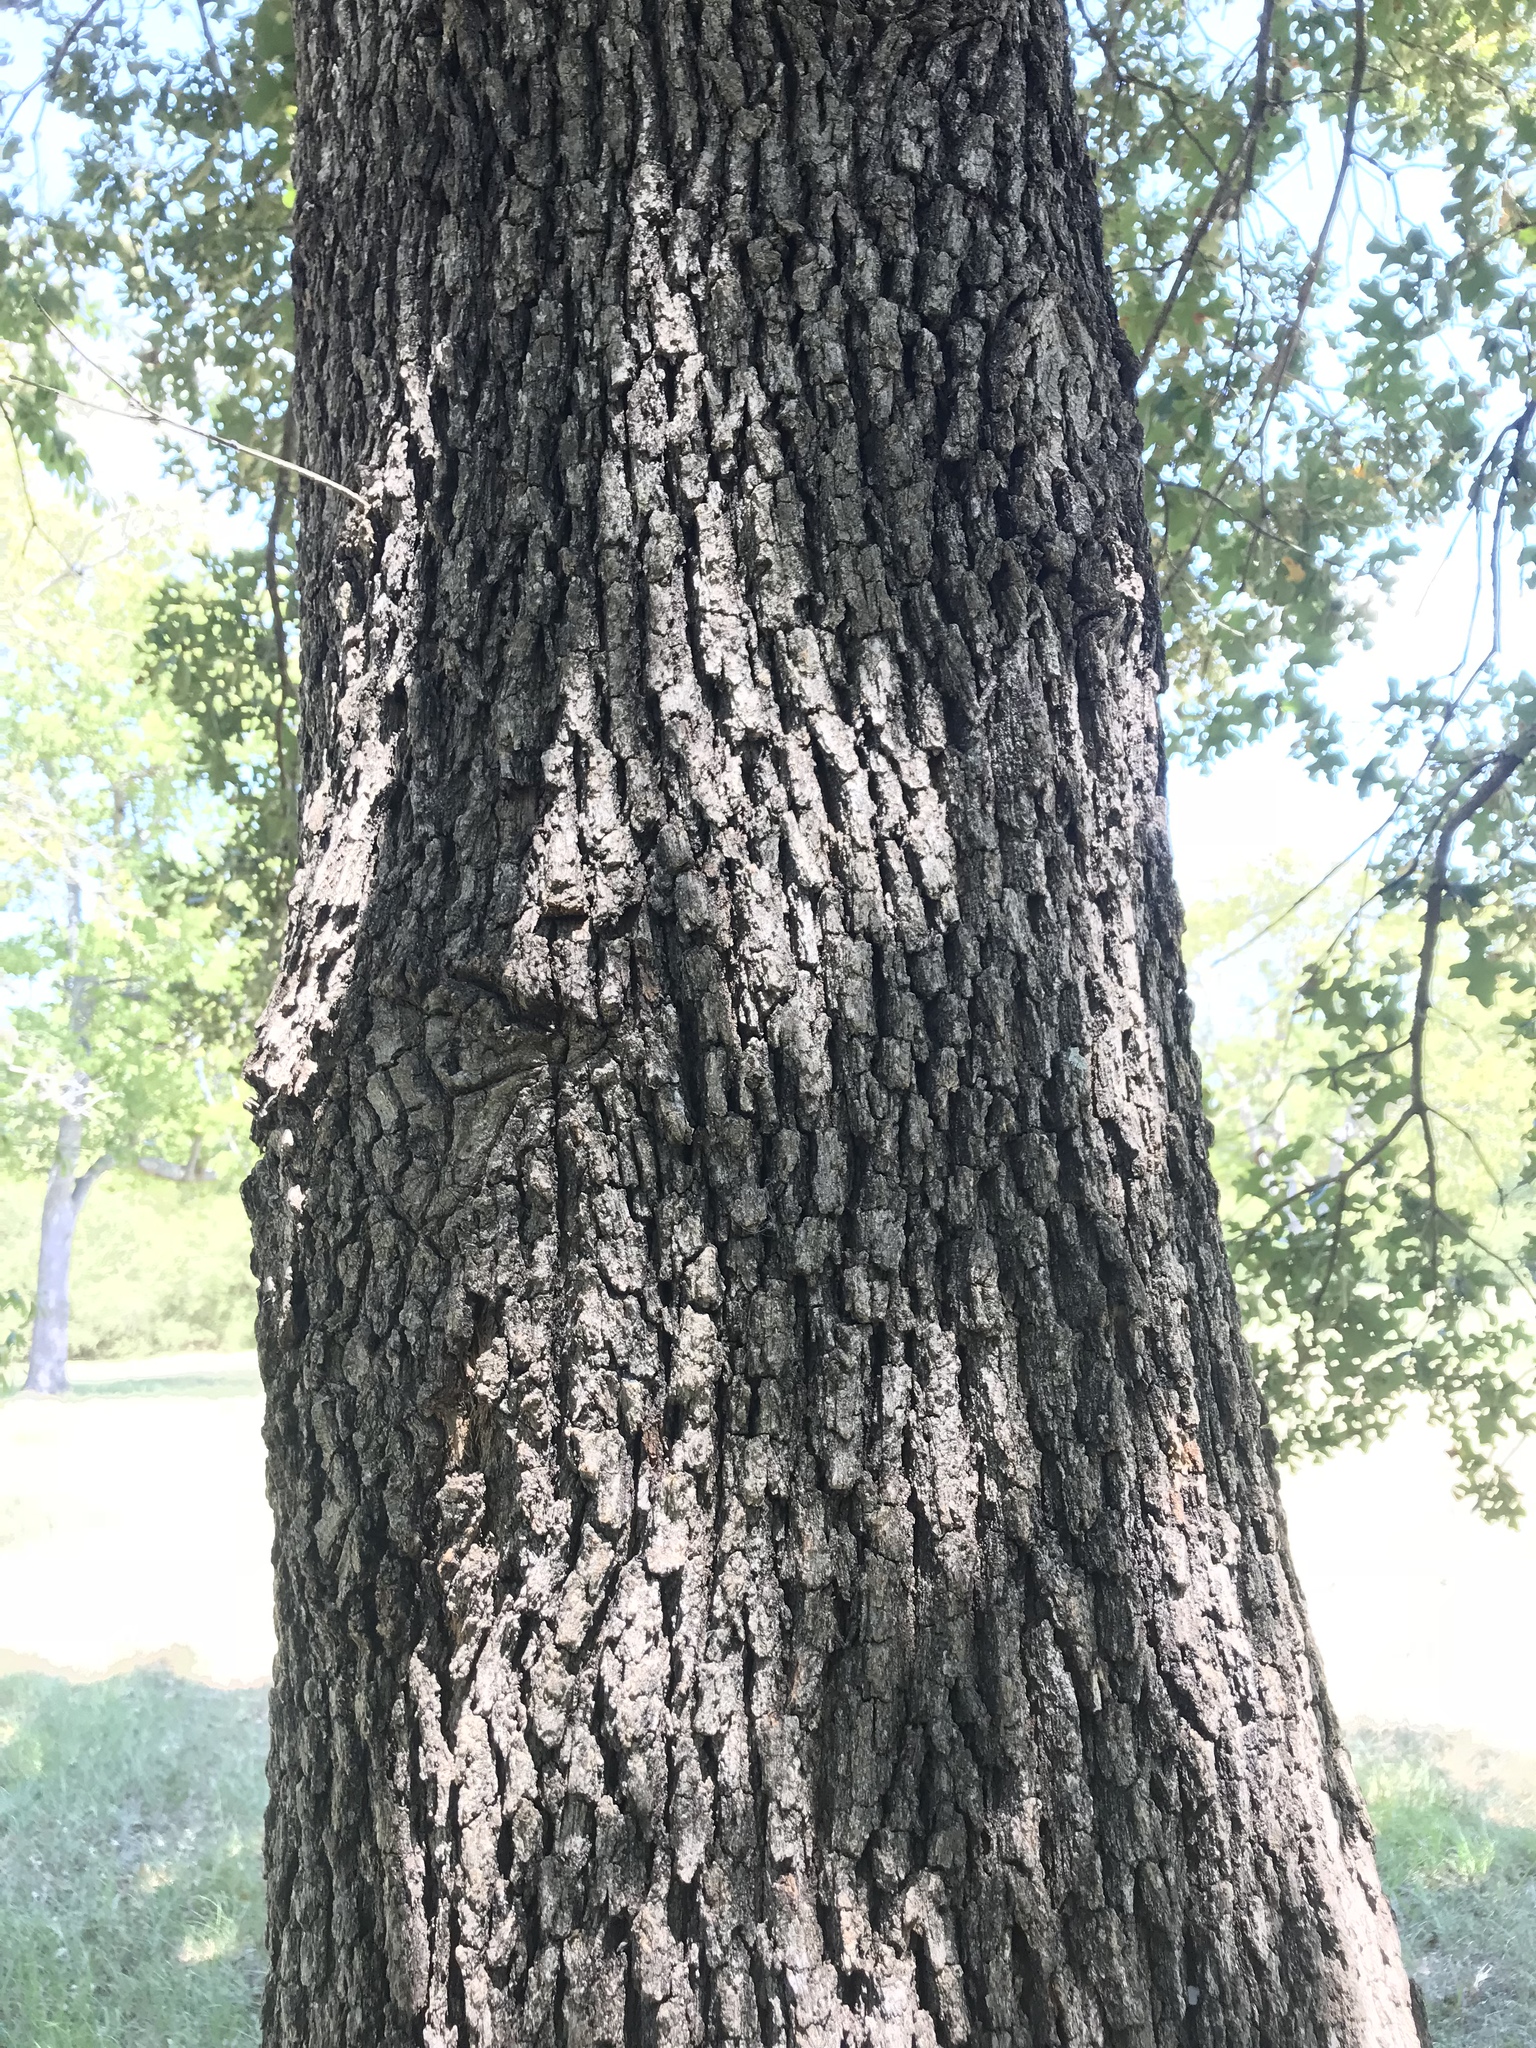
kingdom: Plantae
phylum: Tracheophyta
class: Magnoliopsida
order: Fagales
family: Fagaceae
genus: Quercus
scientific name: Quercus stellata
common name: Post oak
